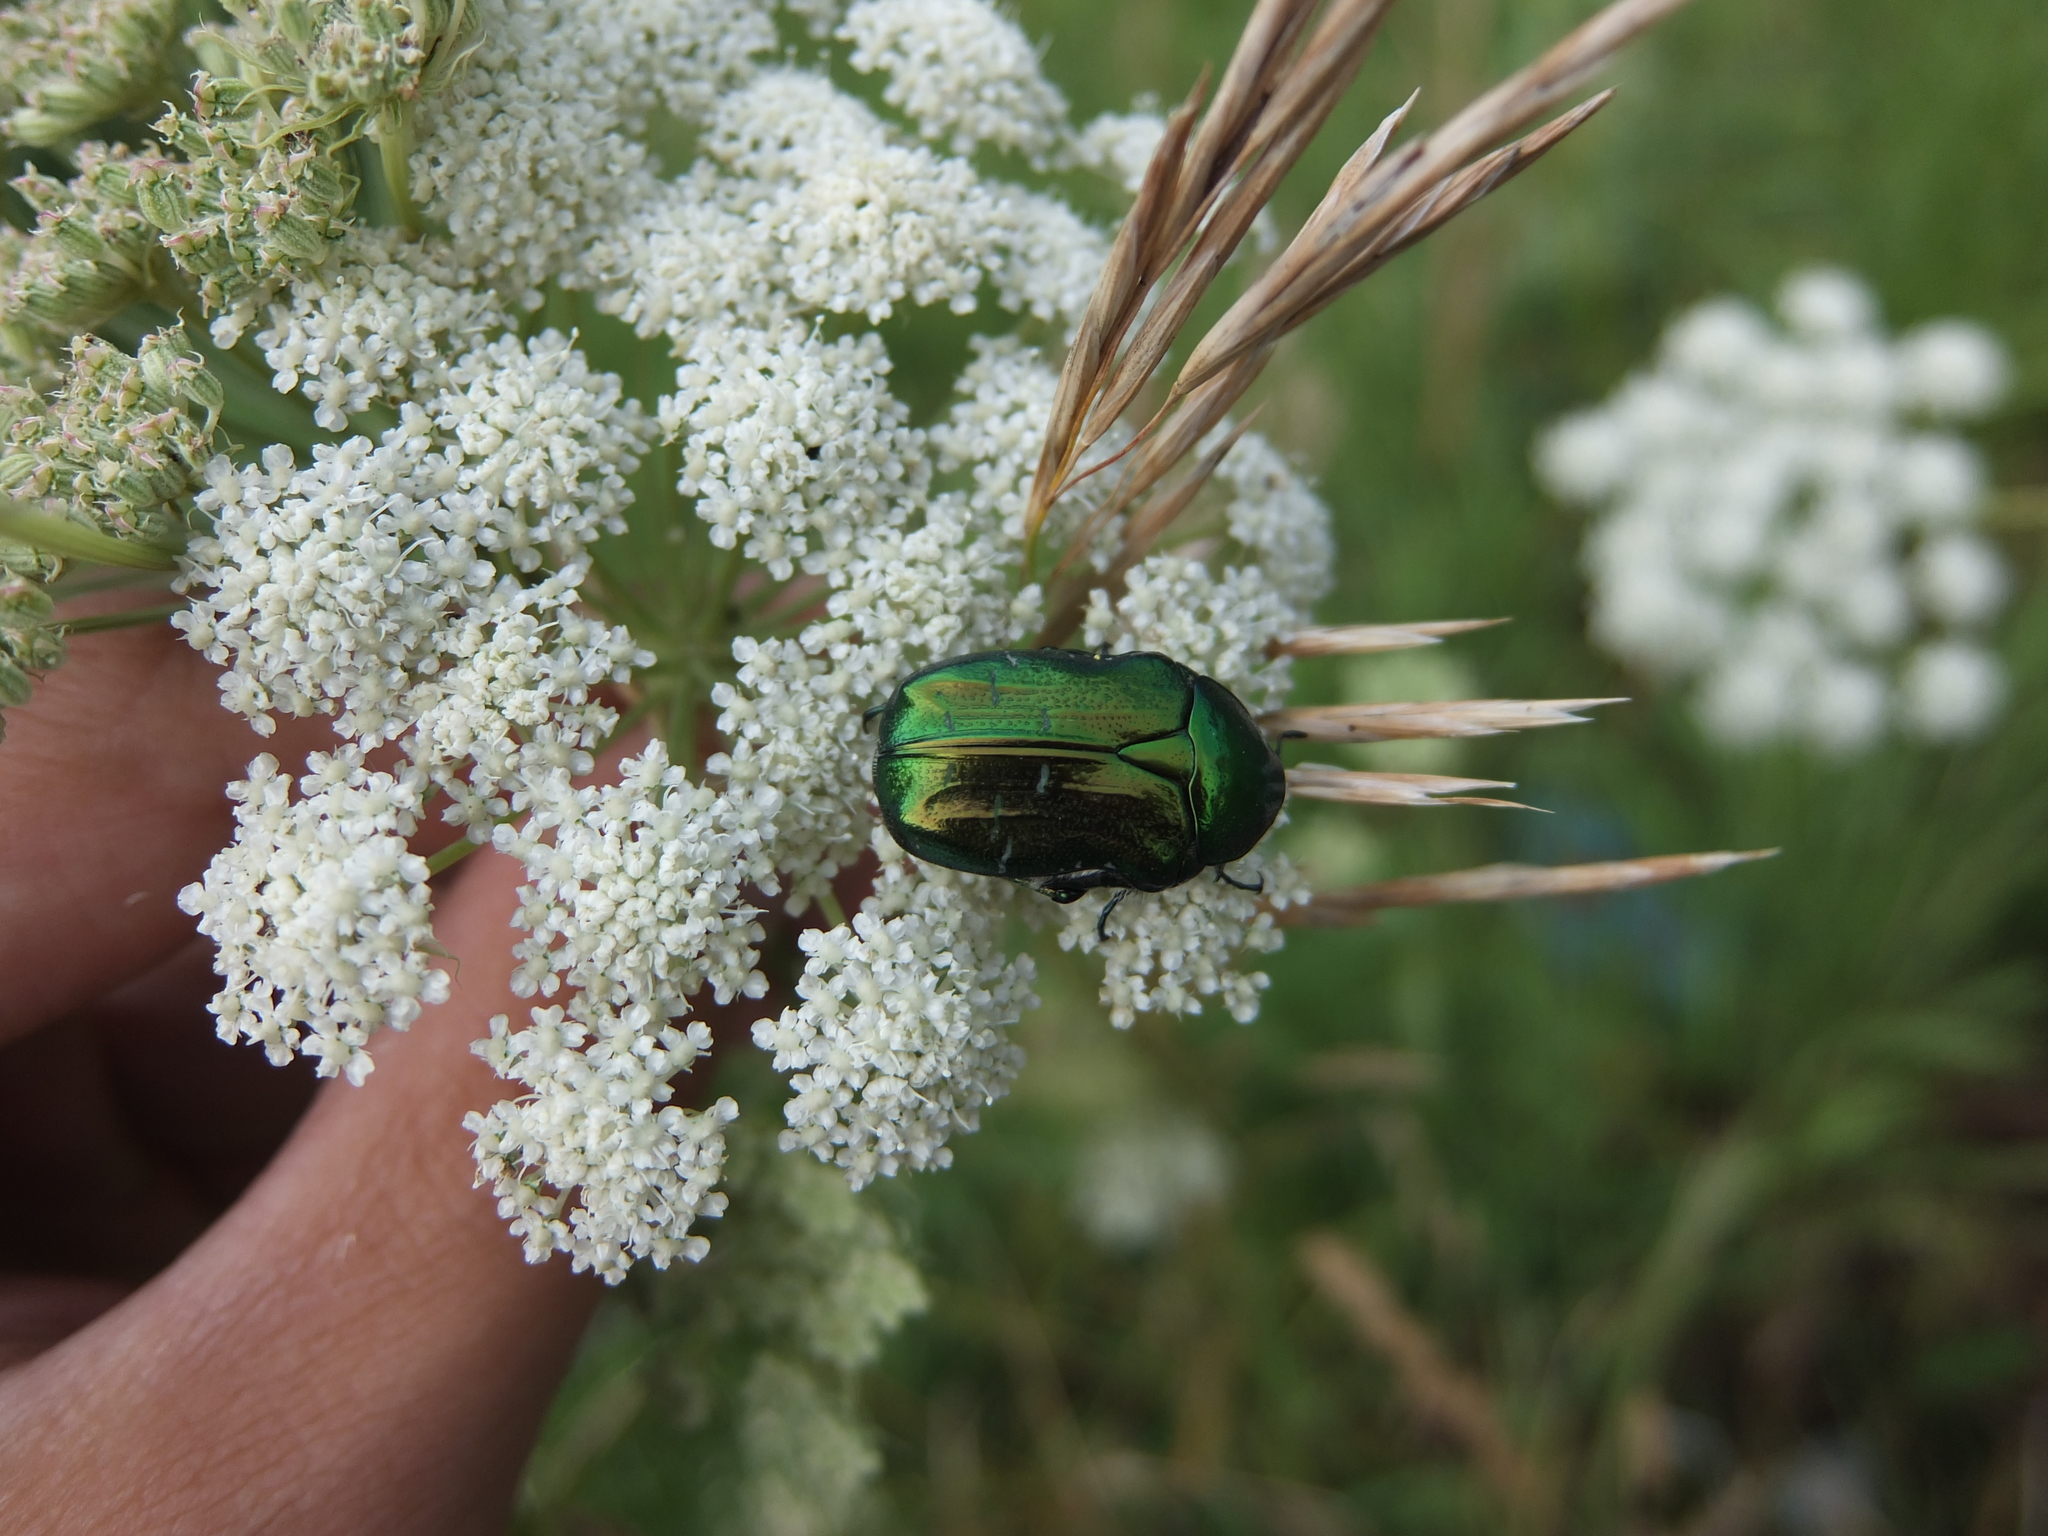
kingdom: Animalia
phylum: Arthropoda
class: Insecta
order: Coleoptera
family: Scarabaeidae
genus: Cetonia
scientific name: Cetonia aurata
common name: Rose chafer
